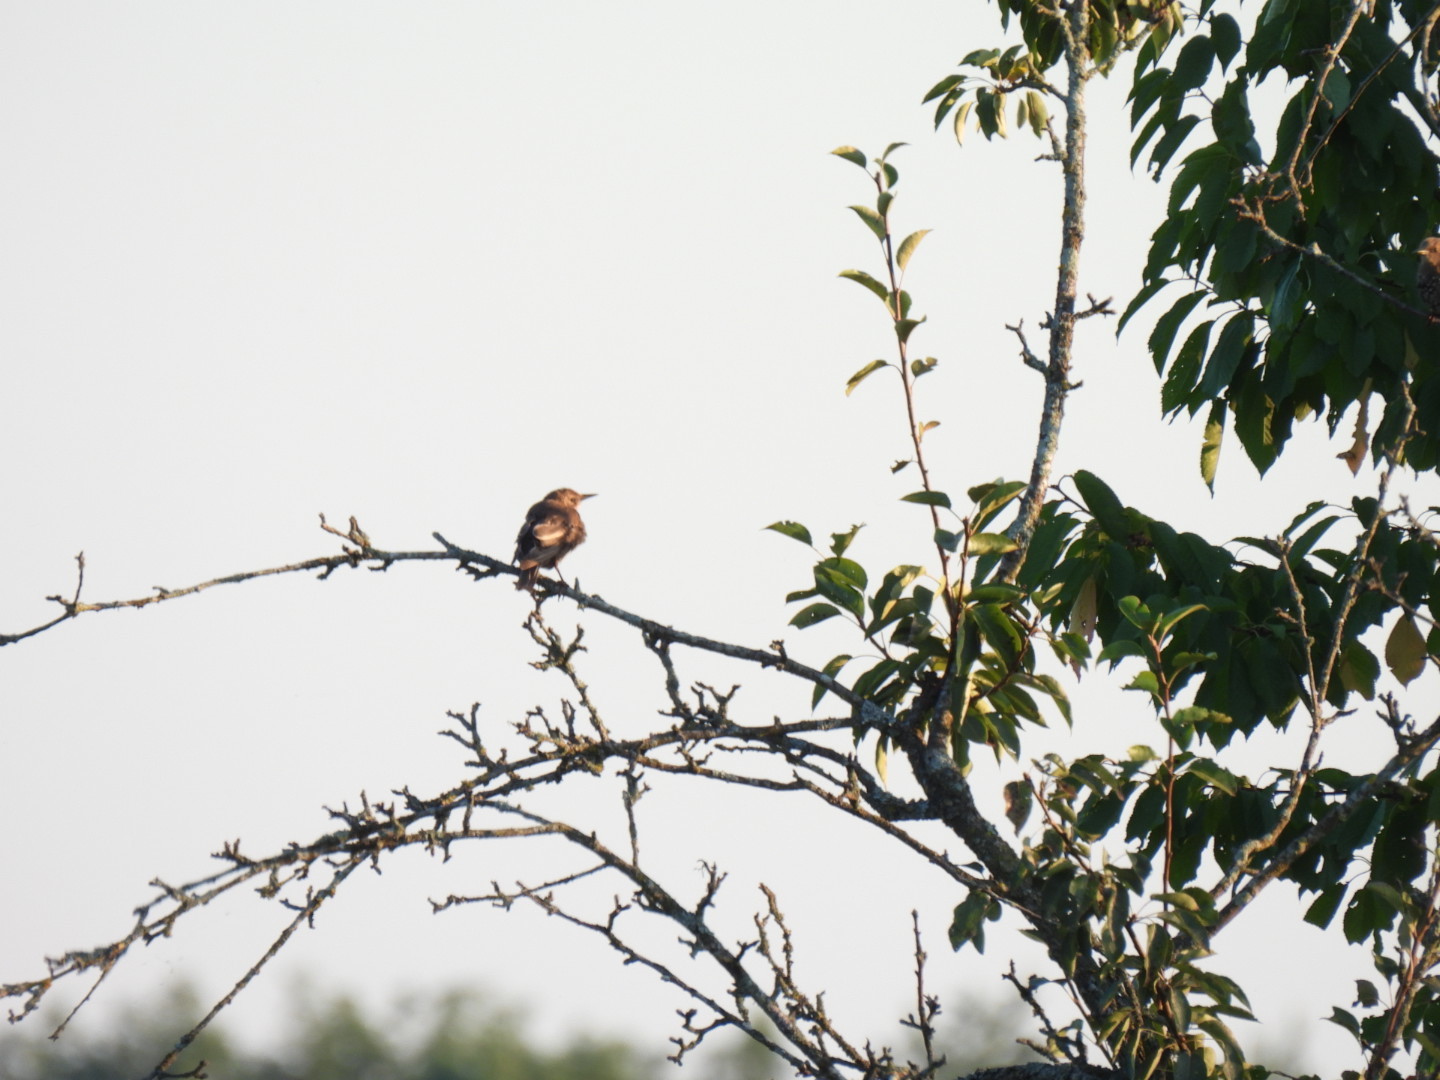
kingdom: Animalia
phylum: Chordata
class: Aves
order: Passeriformes
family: Sturnidae
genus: Sturnus
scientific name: Sturnus vulgaris
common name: Common starling
